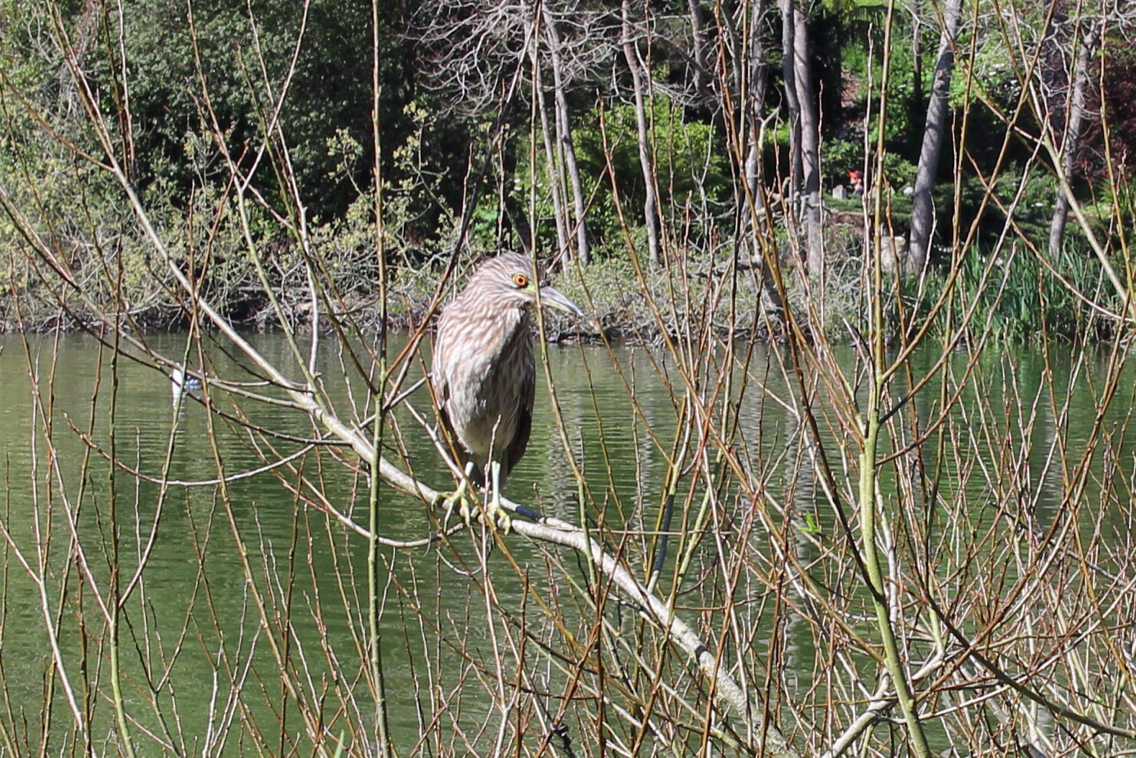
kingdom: Animalia
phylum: Chordata
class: Aves
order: Pelecaniformes
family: Ardeidae
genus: Nycticorax
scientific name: Nycticorax nycticorax
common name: Black-crowned night heron
